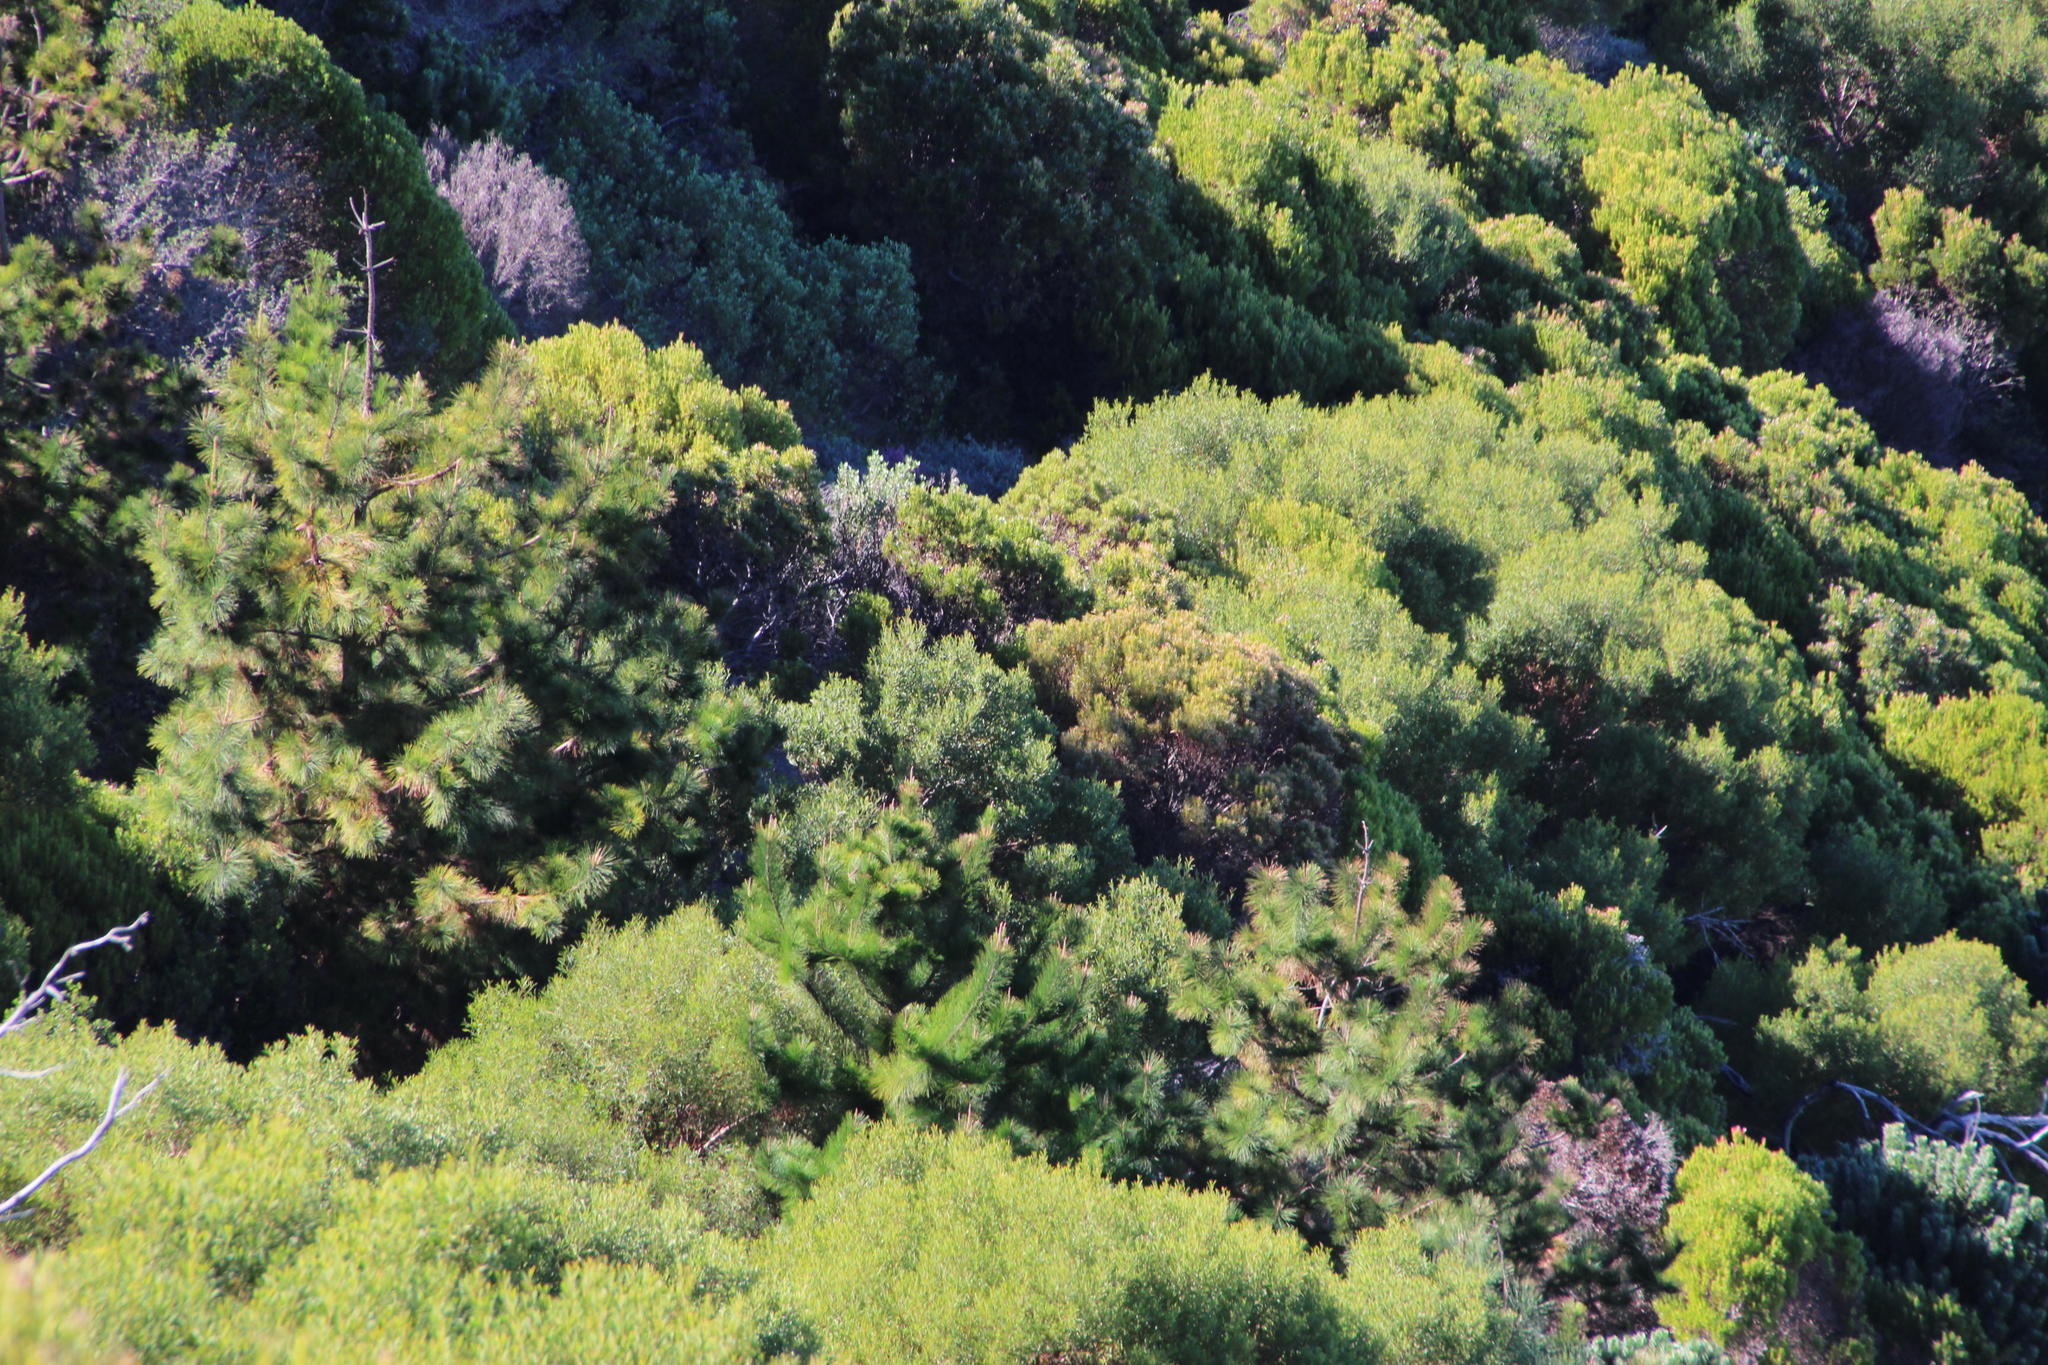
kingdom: Plantae
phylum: Tracheophyta
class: Magnoliopsida
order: Fabales
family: Fabaceae
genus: Acacia
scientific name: Acacia cyclops
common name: Coastal wattle
